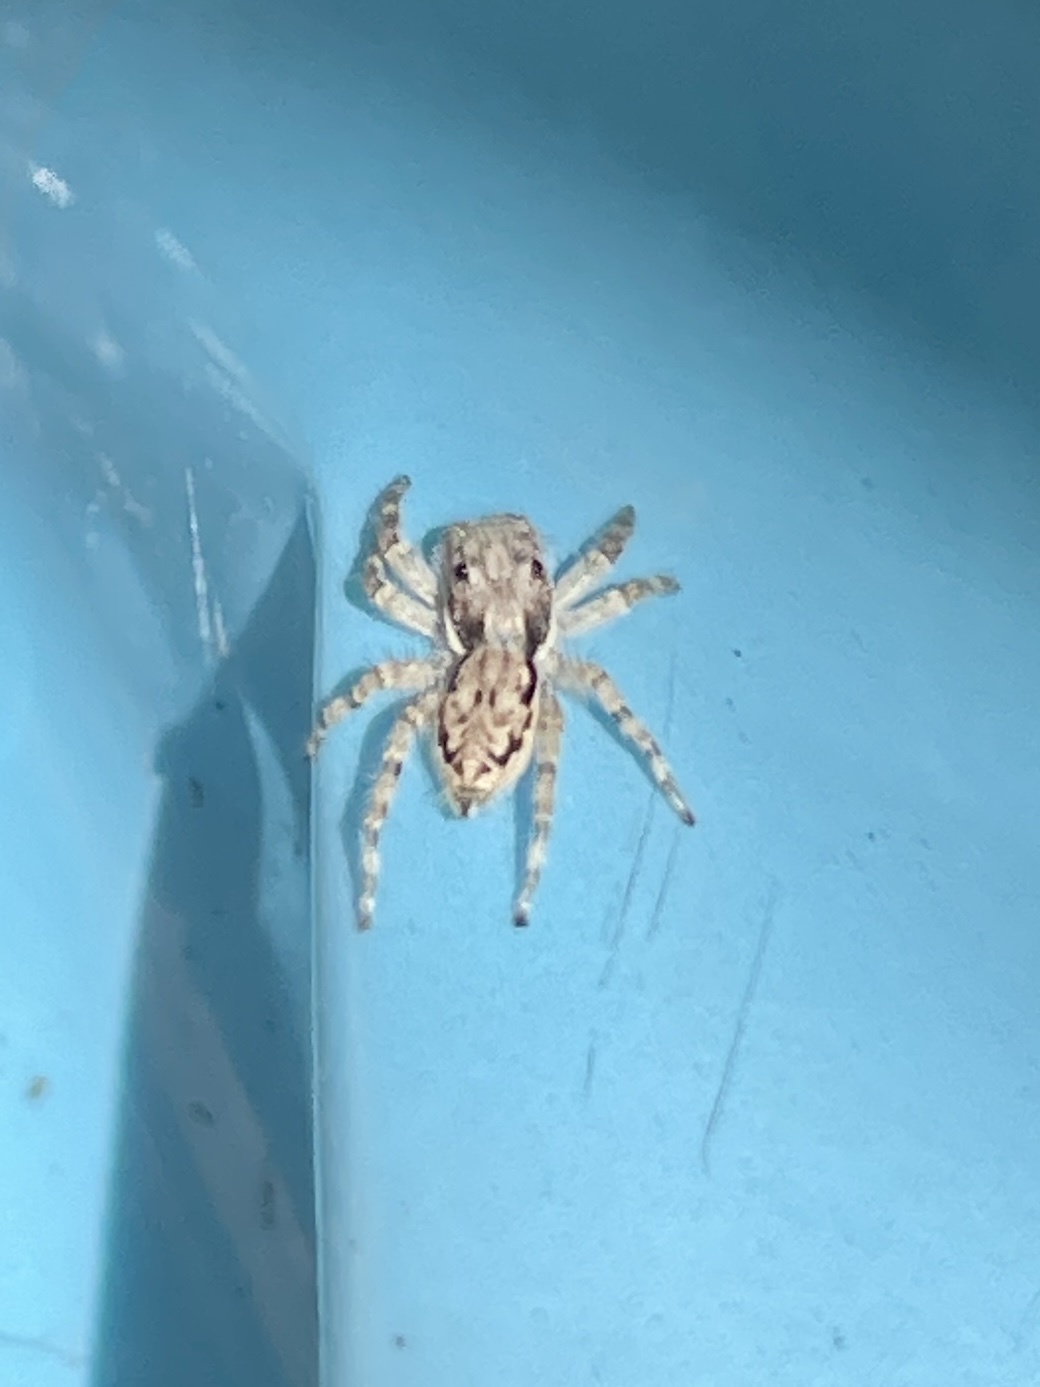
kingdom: Animalia
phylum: Arthropoda
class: Arachnida
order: Araneae
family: Salticidae
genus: Menemerus
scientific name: Menemerus bivittatus
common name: Gray wall jumper
